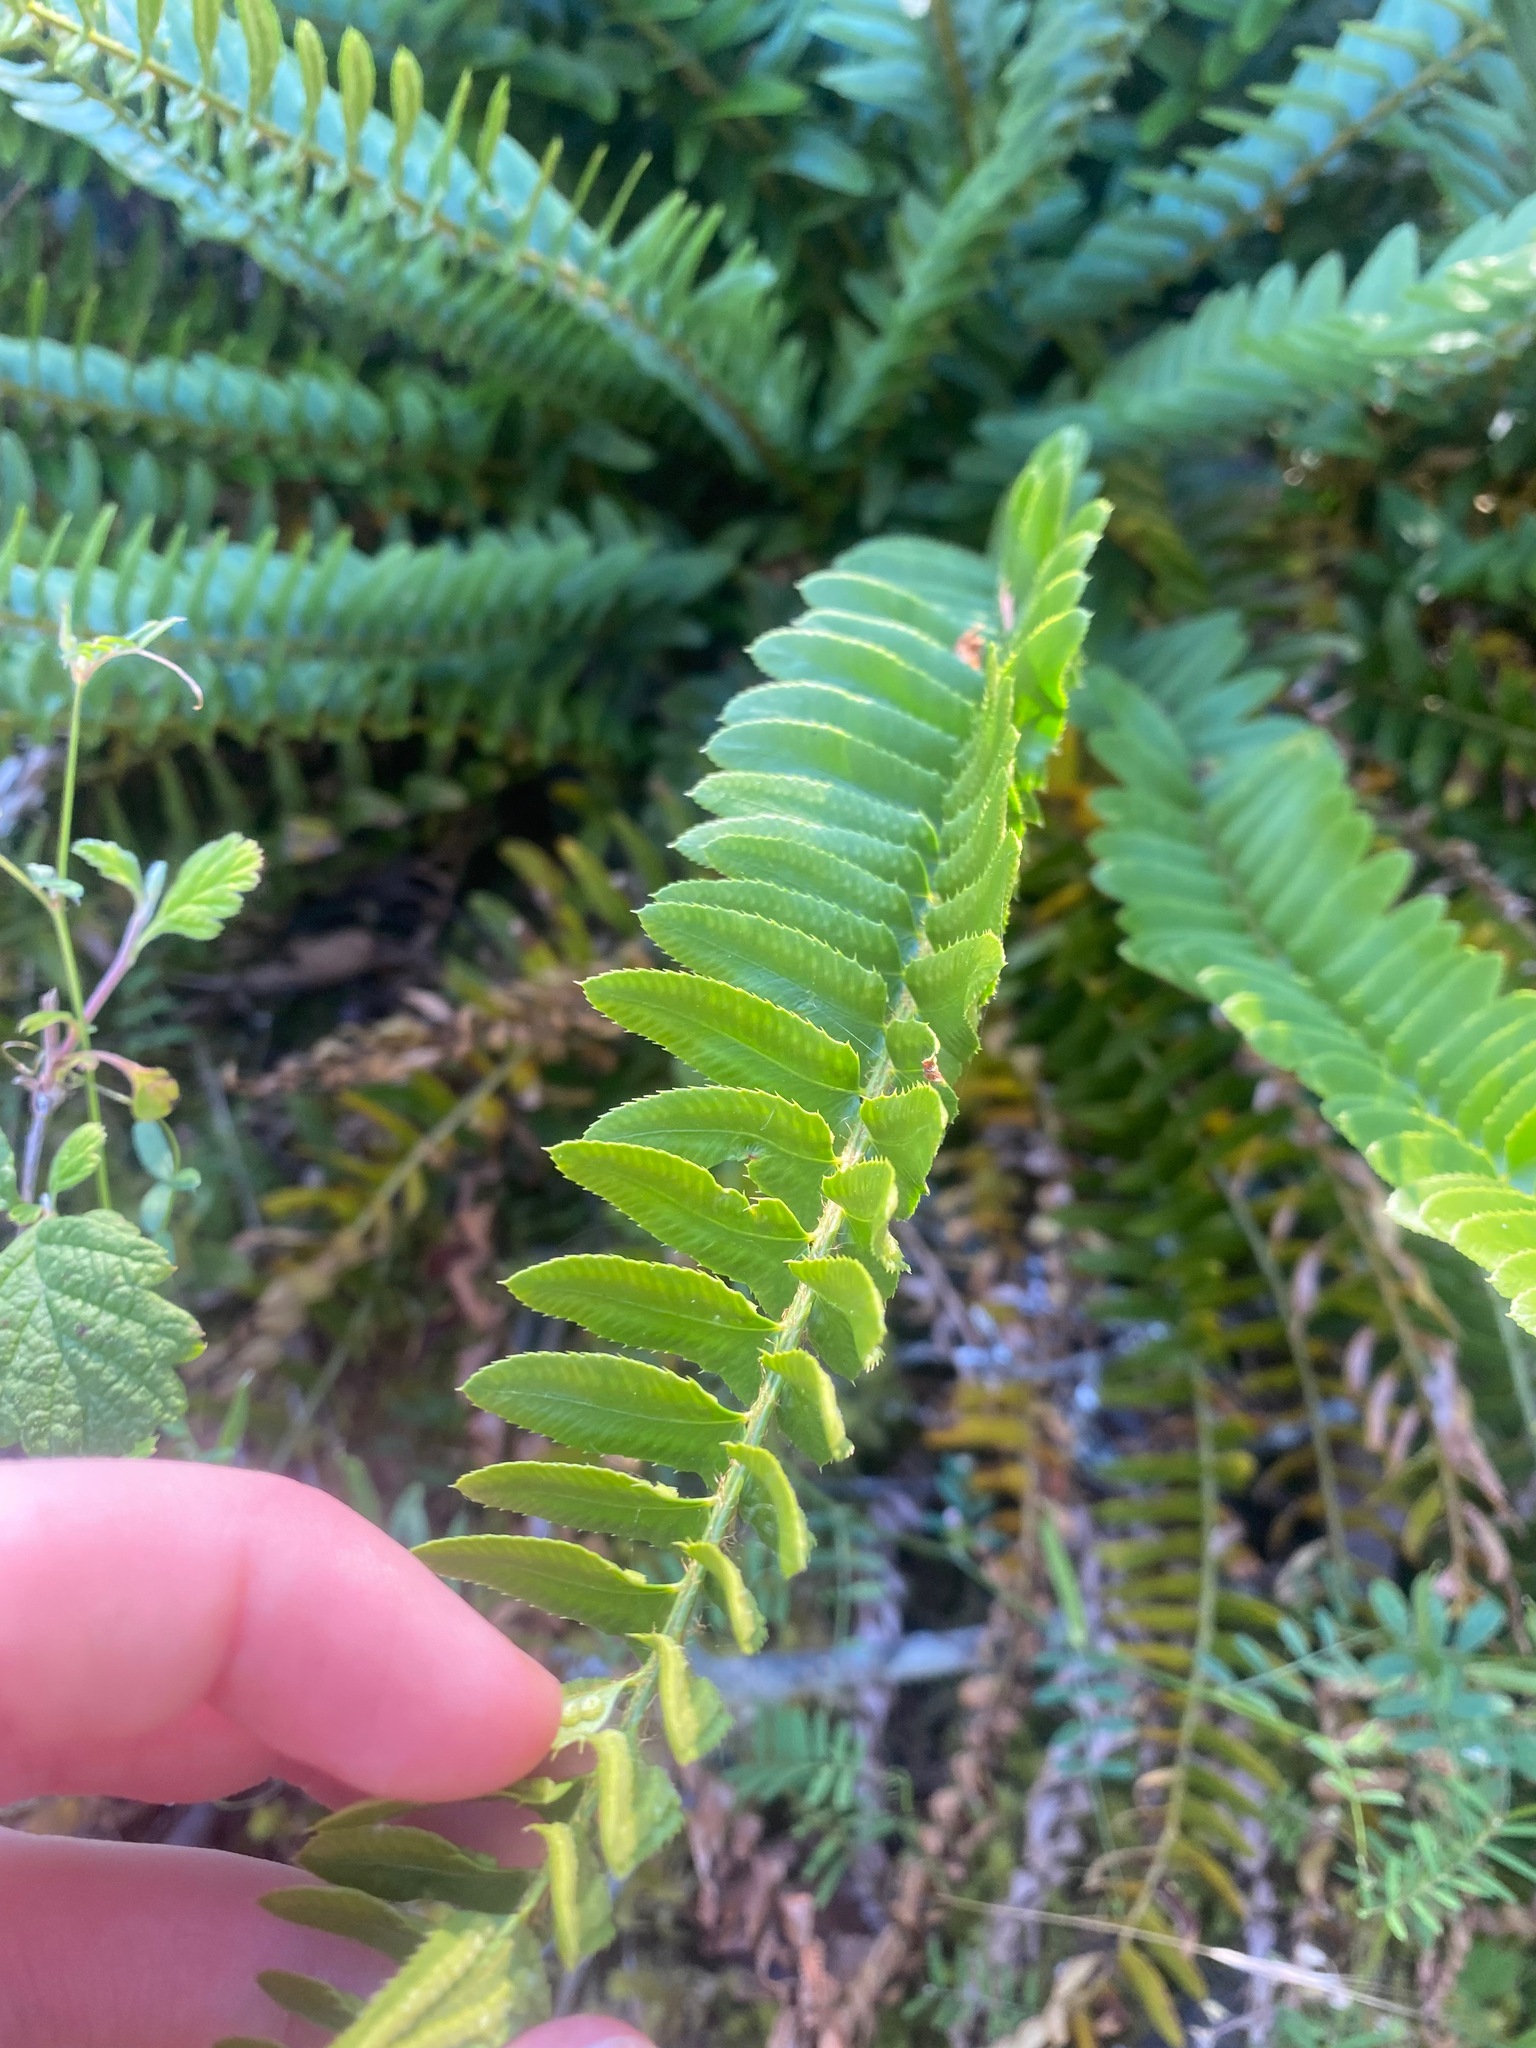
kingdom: Plantae
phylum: Tracheophyta
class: Polypodiopsida
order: Polypodiales
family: Dryopteridaceae
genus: Polystichum
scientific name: Polystichum imbricans
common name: Dwarf western sword fern
